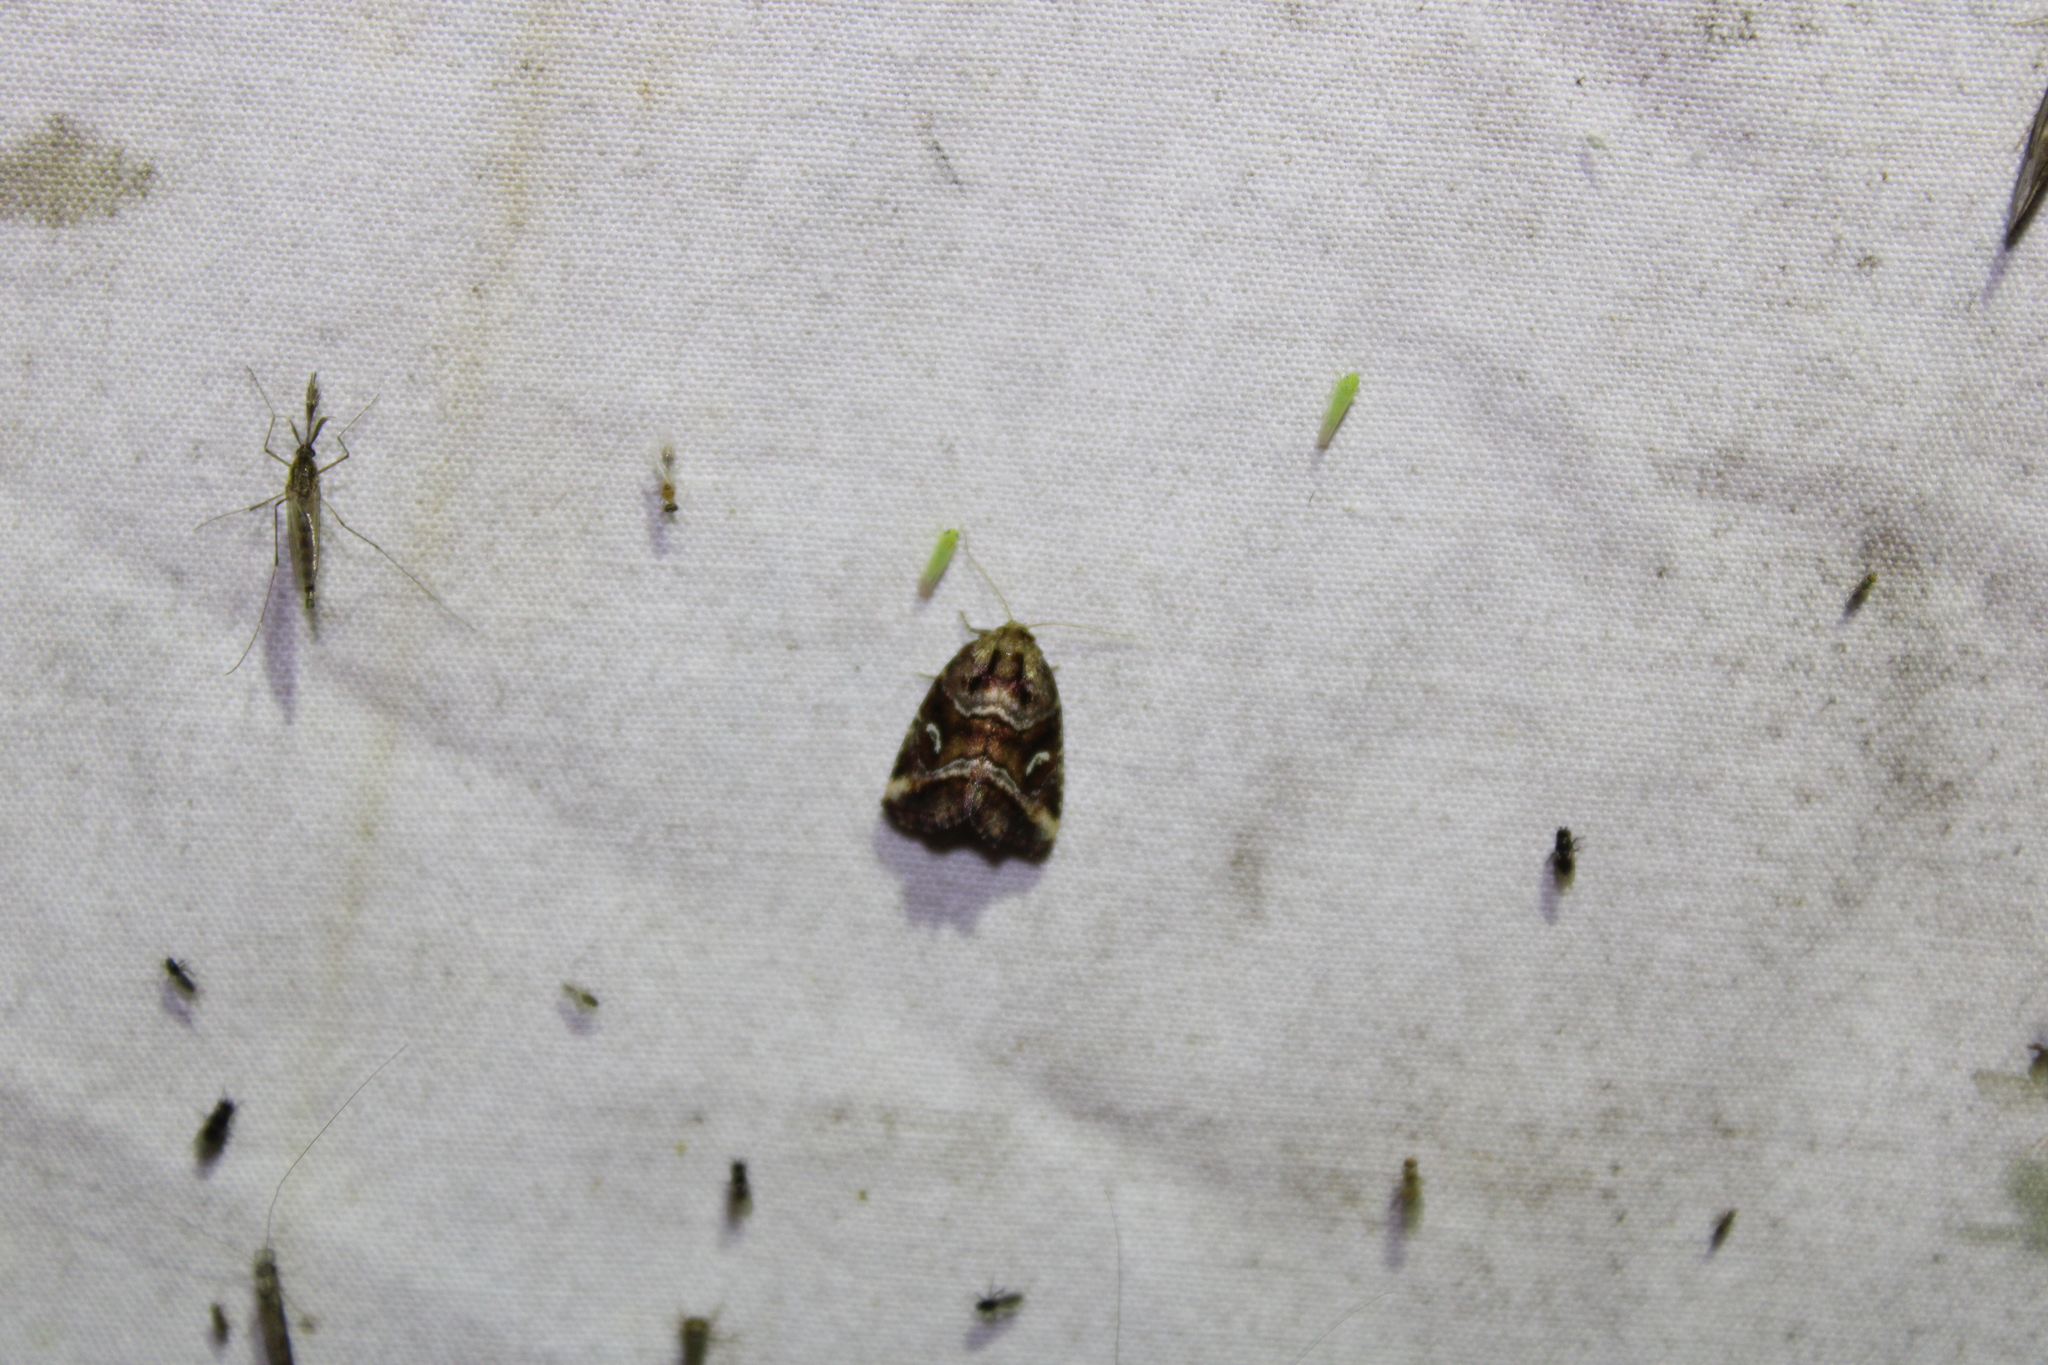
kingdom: Animalia
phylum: Arthropoda
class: Insecta
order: Lepidoptera
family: Noctuidae
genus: Photedes
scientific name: Photedes includens
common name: Included cordgrass borer moth
